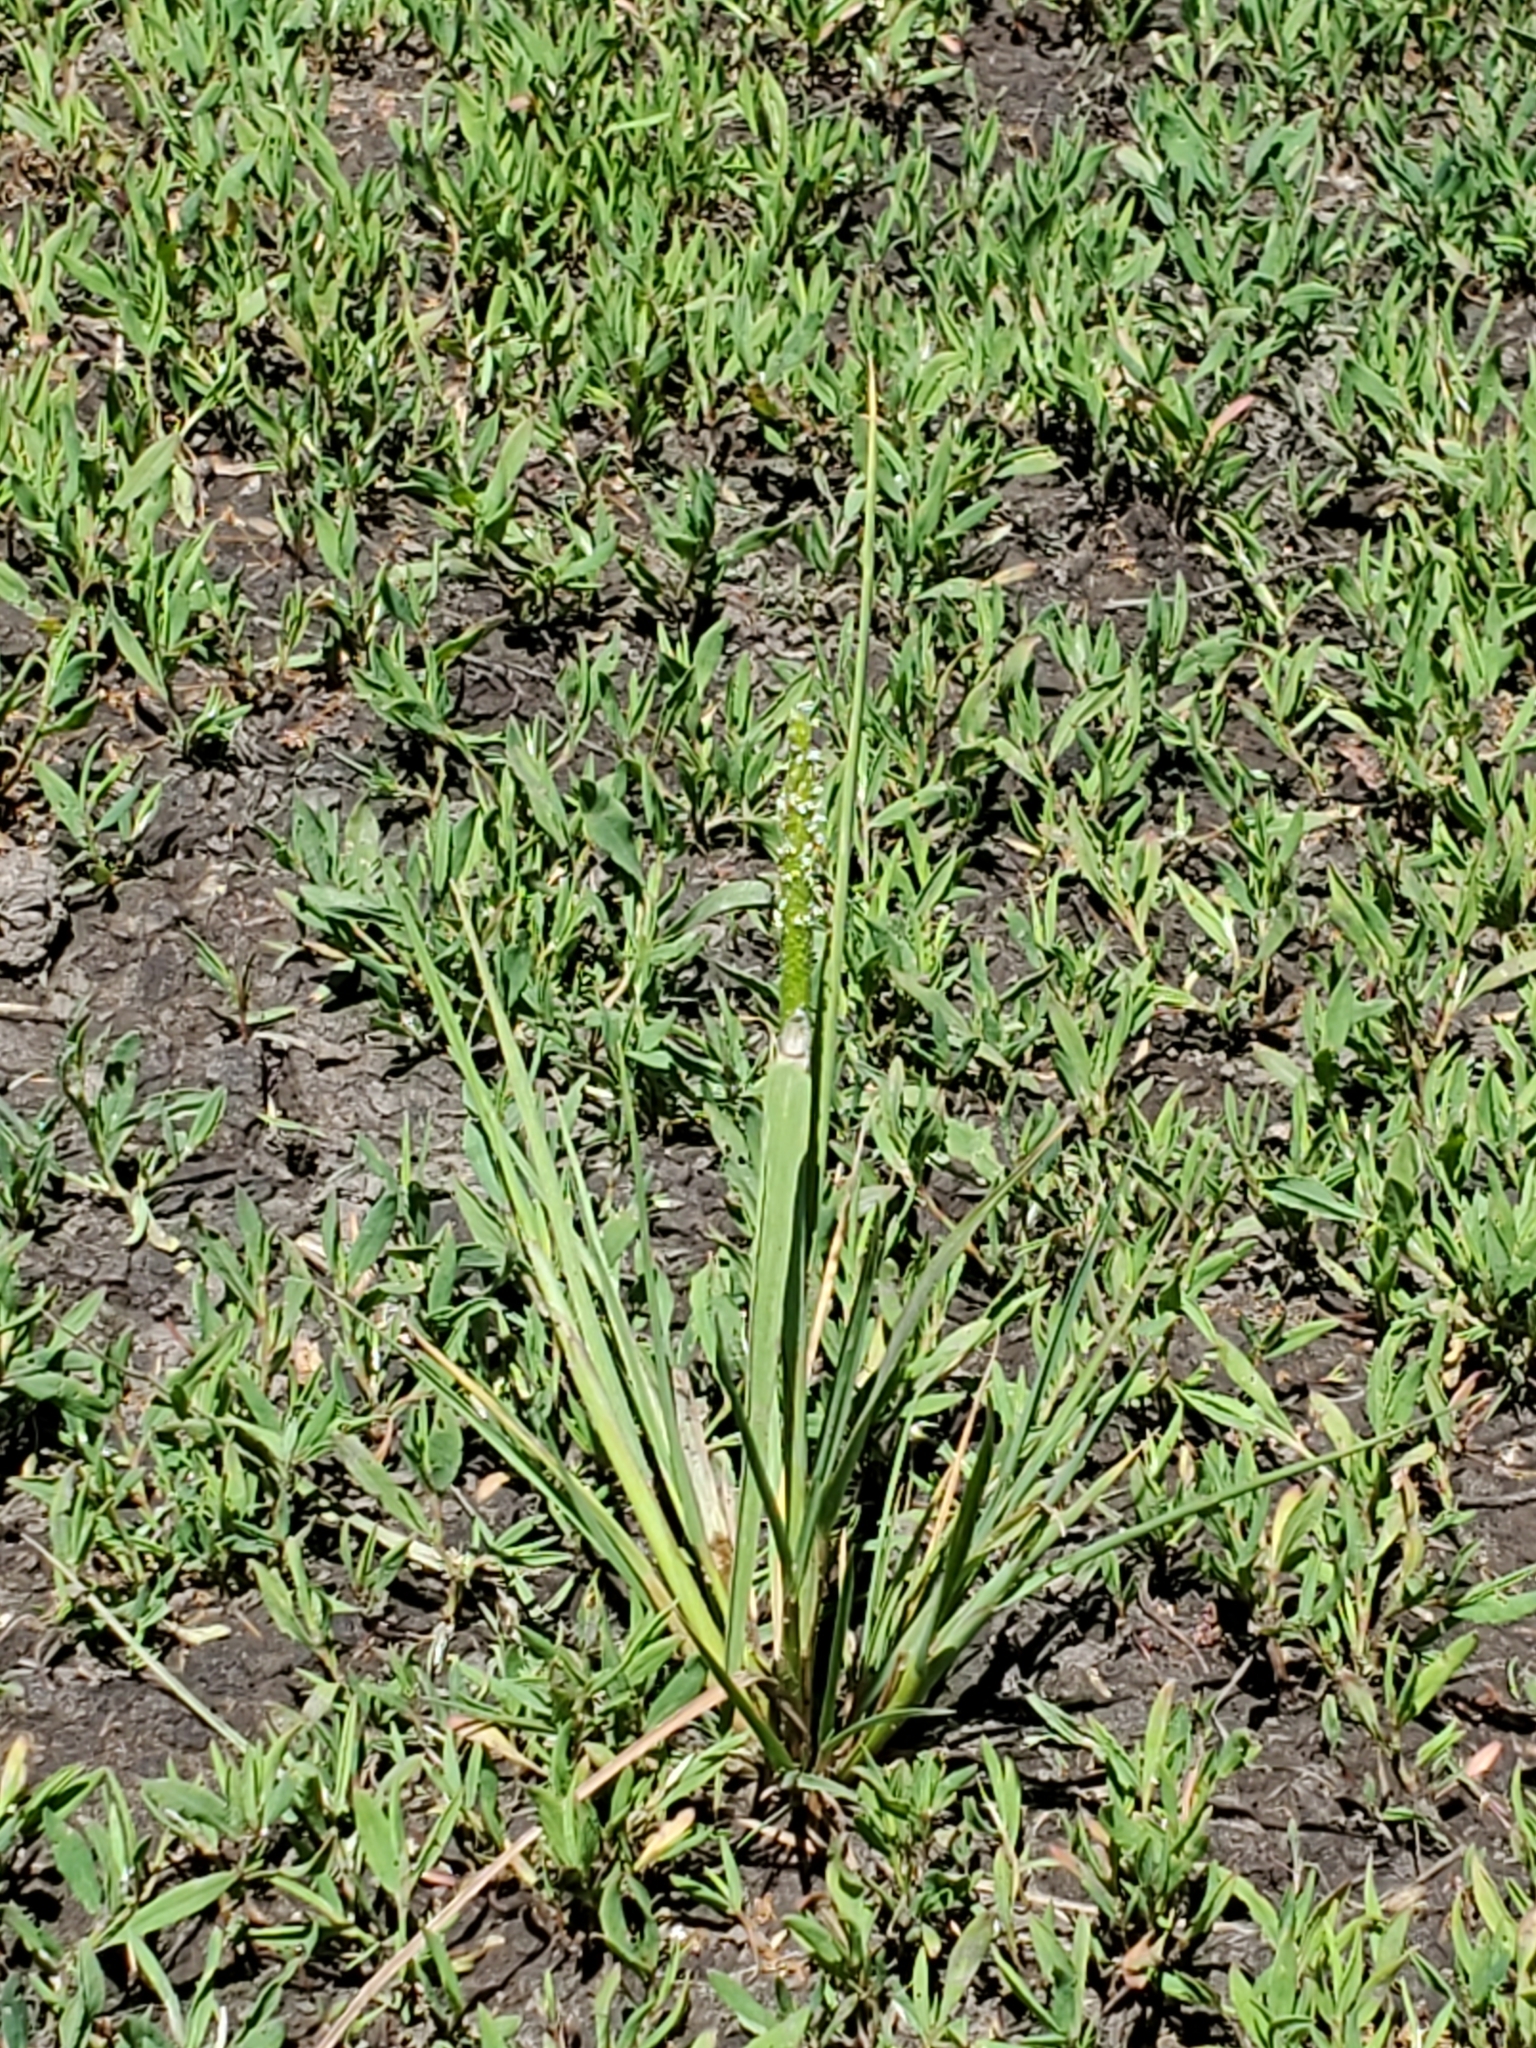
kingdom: Plantae
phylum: Tracheophyta
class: Liliopsida
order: Poales
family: Poaceae
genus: Alopecurus
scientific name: Alopecurus aequalis
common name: Orange foxtail
